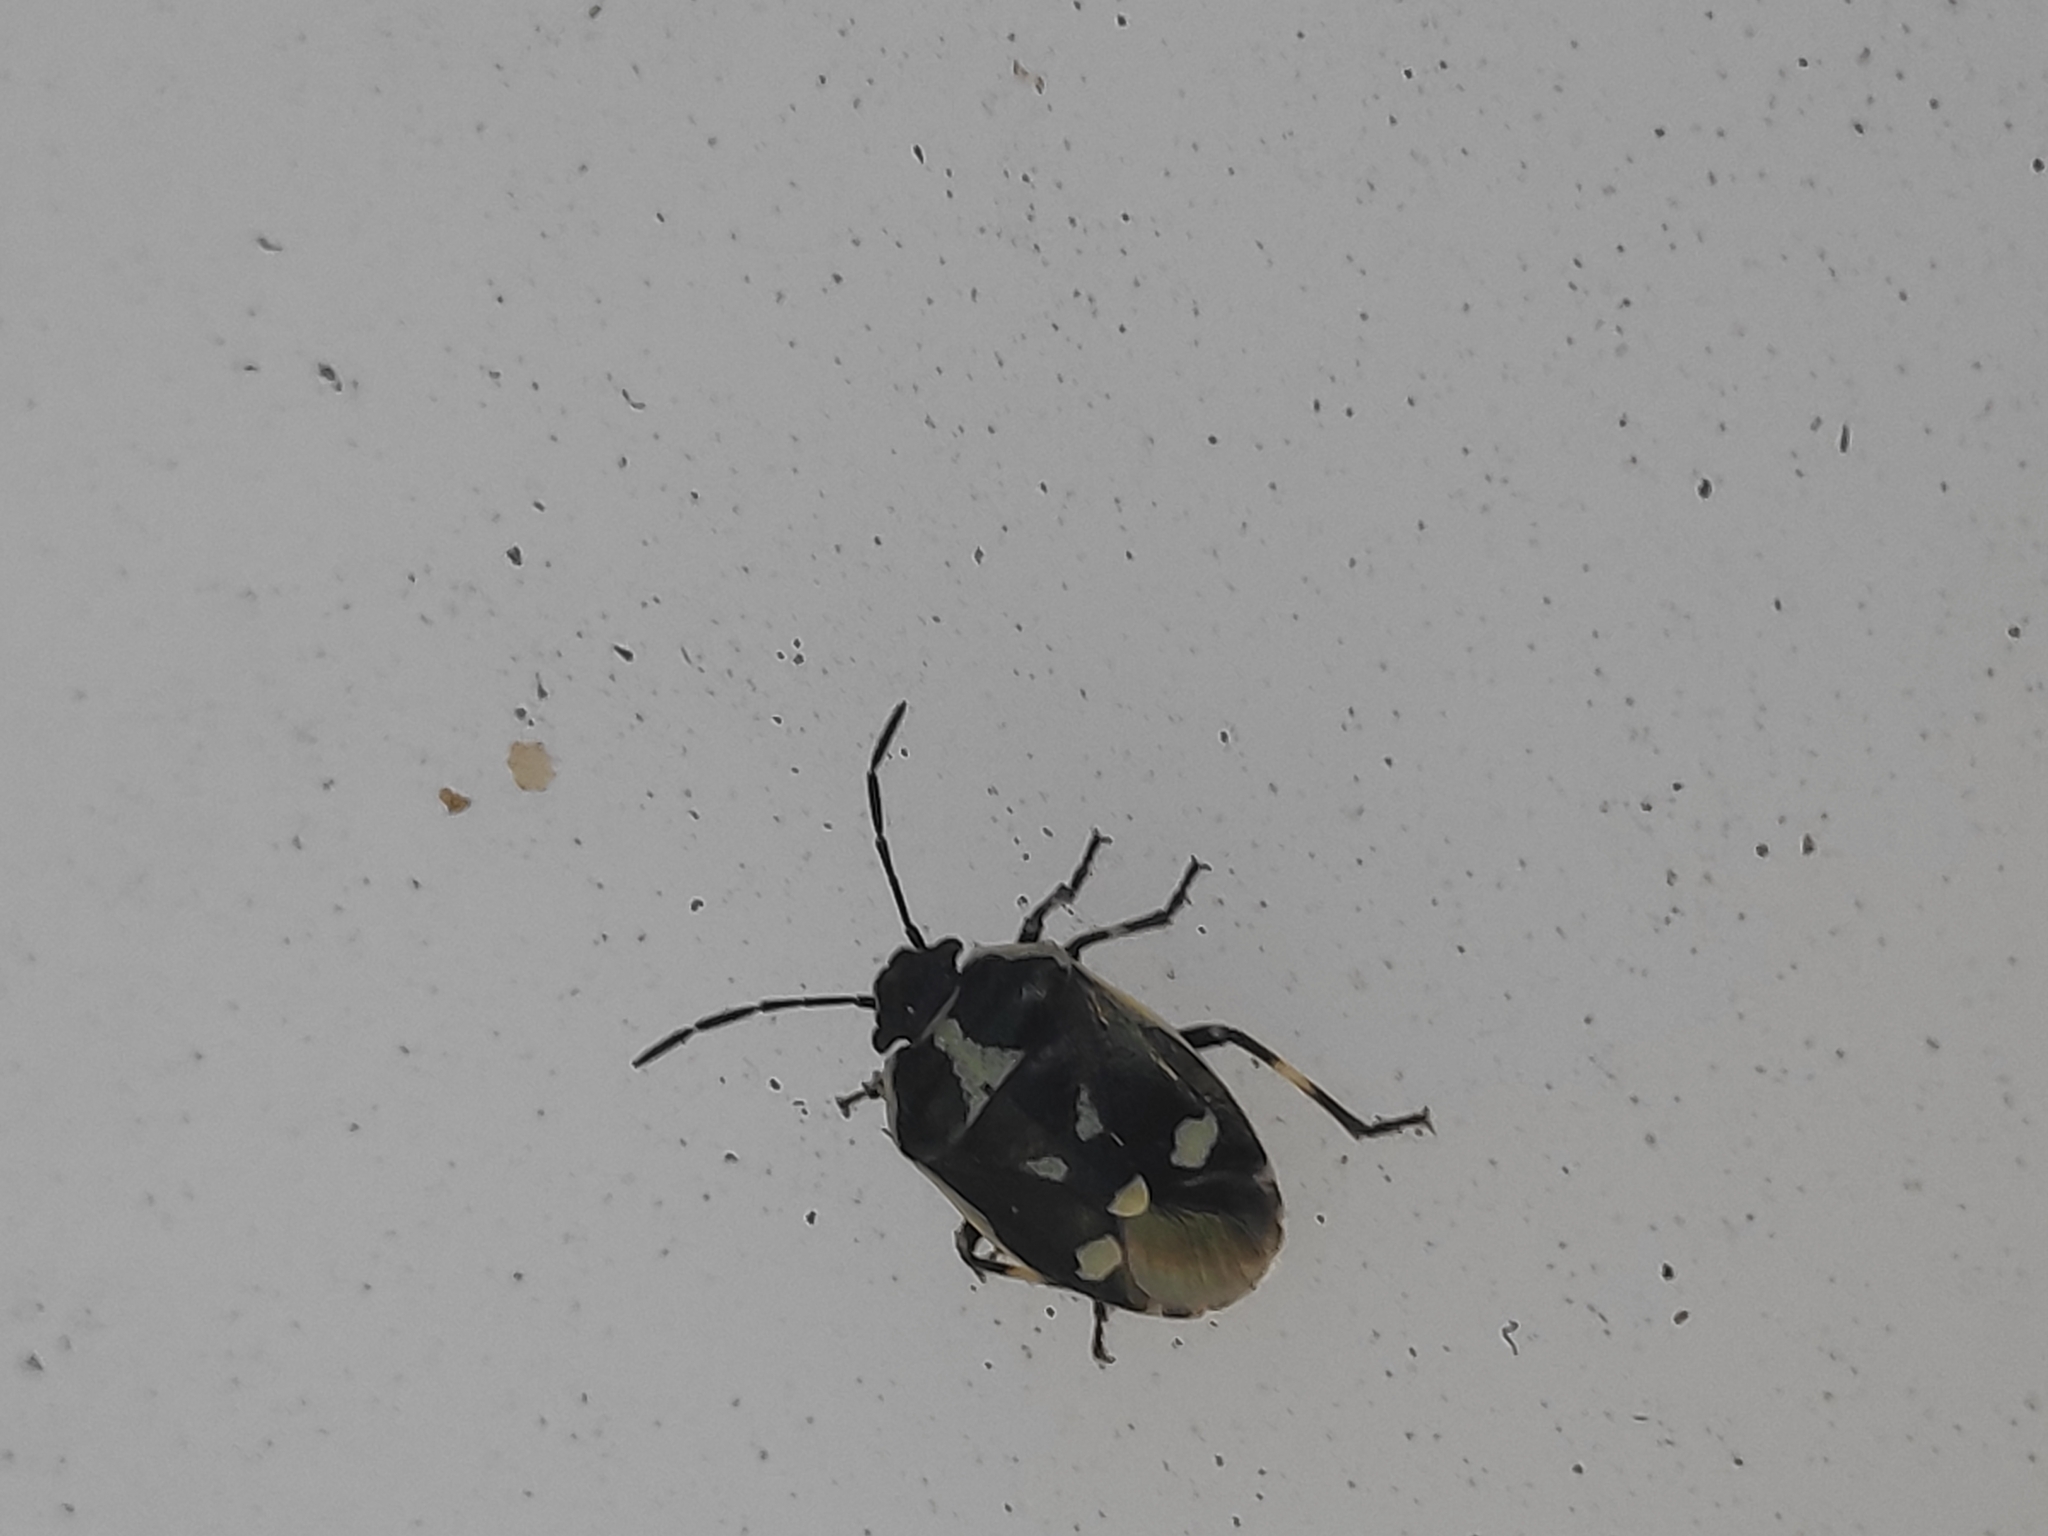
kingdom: Animalia
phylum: Arthropoda
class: Insecta
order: Hemiptera
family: Pentatomidae
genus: Eurydema
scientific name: Eurydema oleracea
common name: Cabbage bug
